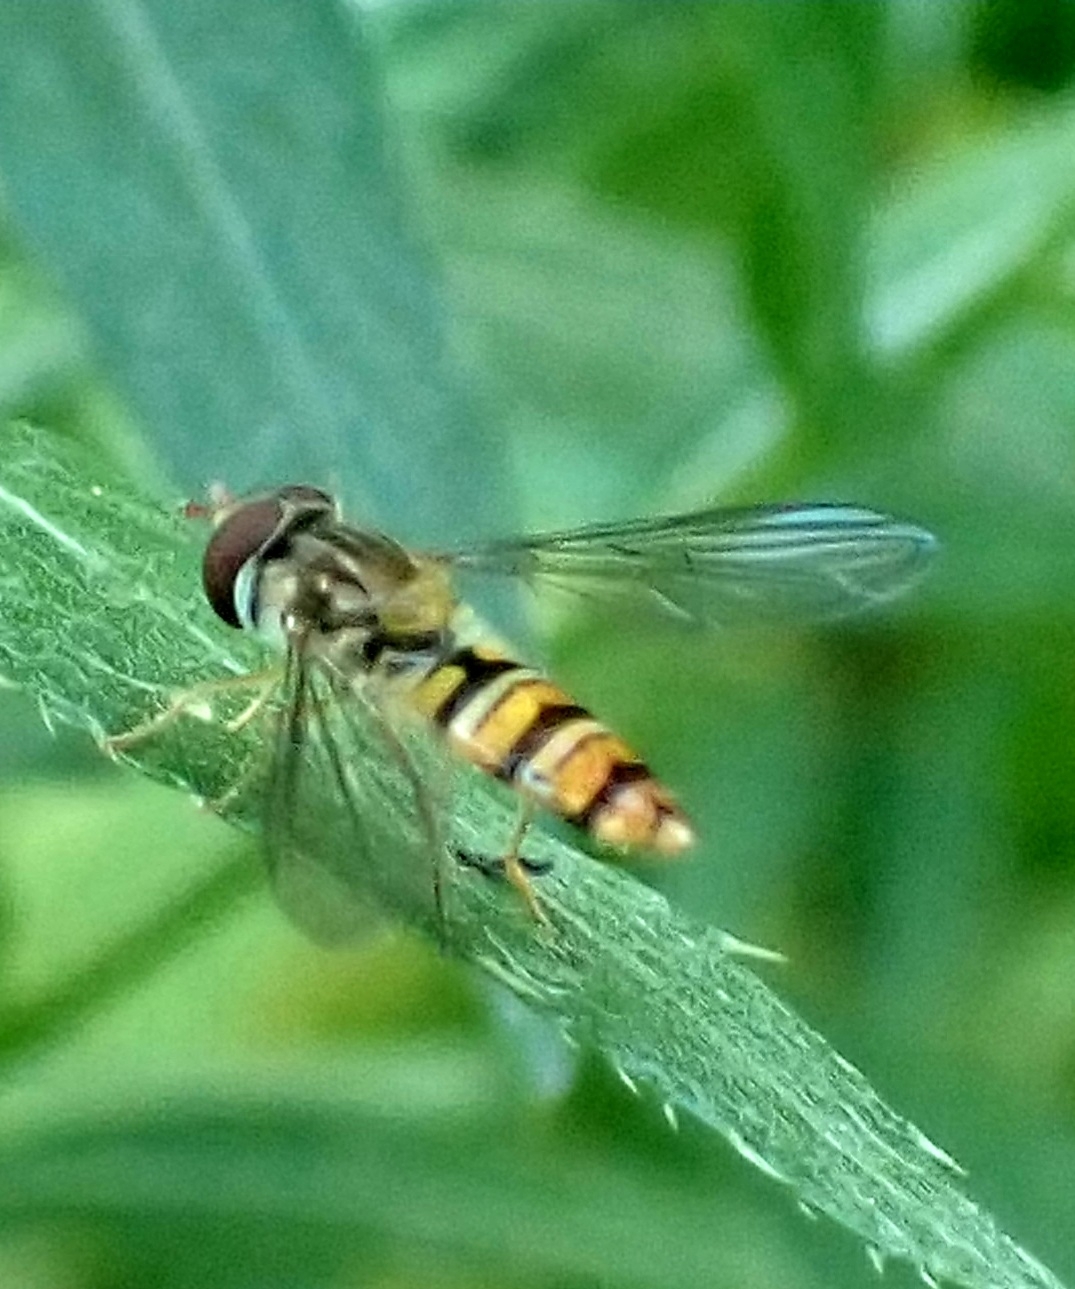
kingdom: Animalia
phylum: Arthropoda
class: Insecta
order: Diptera
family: Syrphidae
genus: Episyrphus
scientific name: Episyrphus balteatus
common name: Marmalade hoverfly
